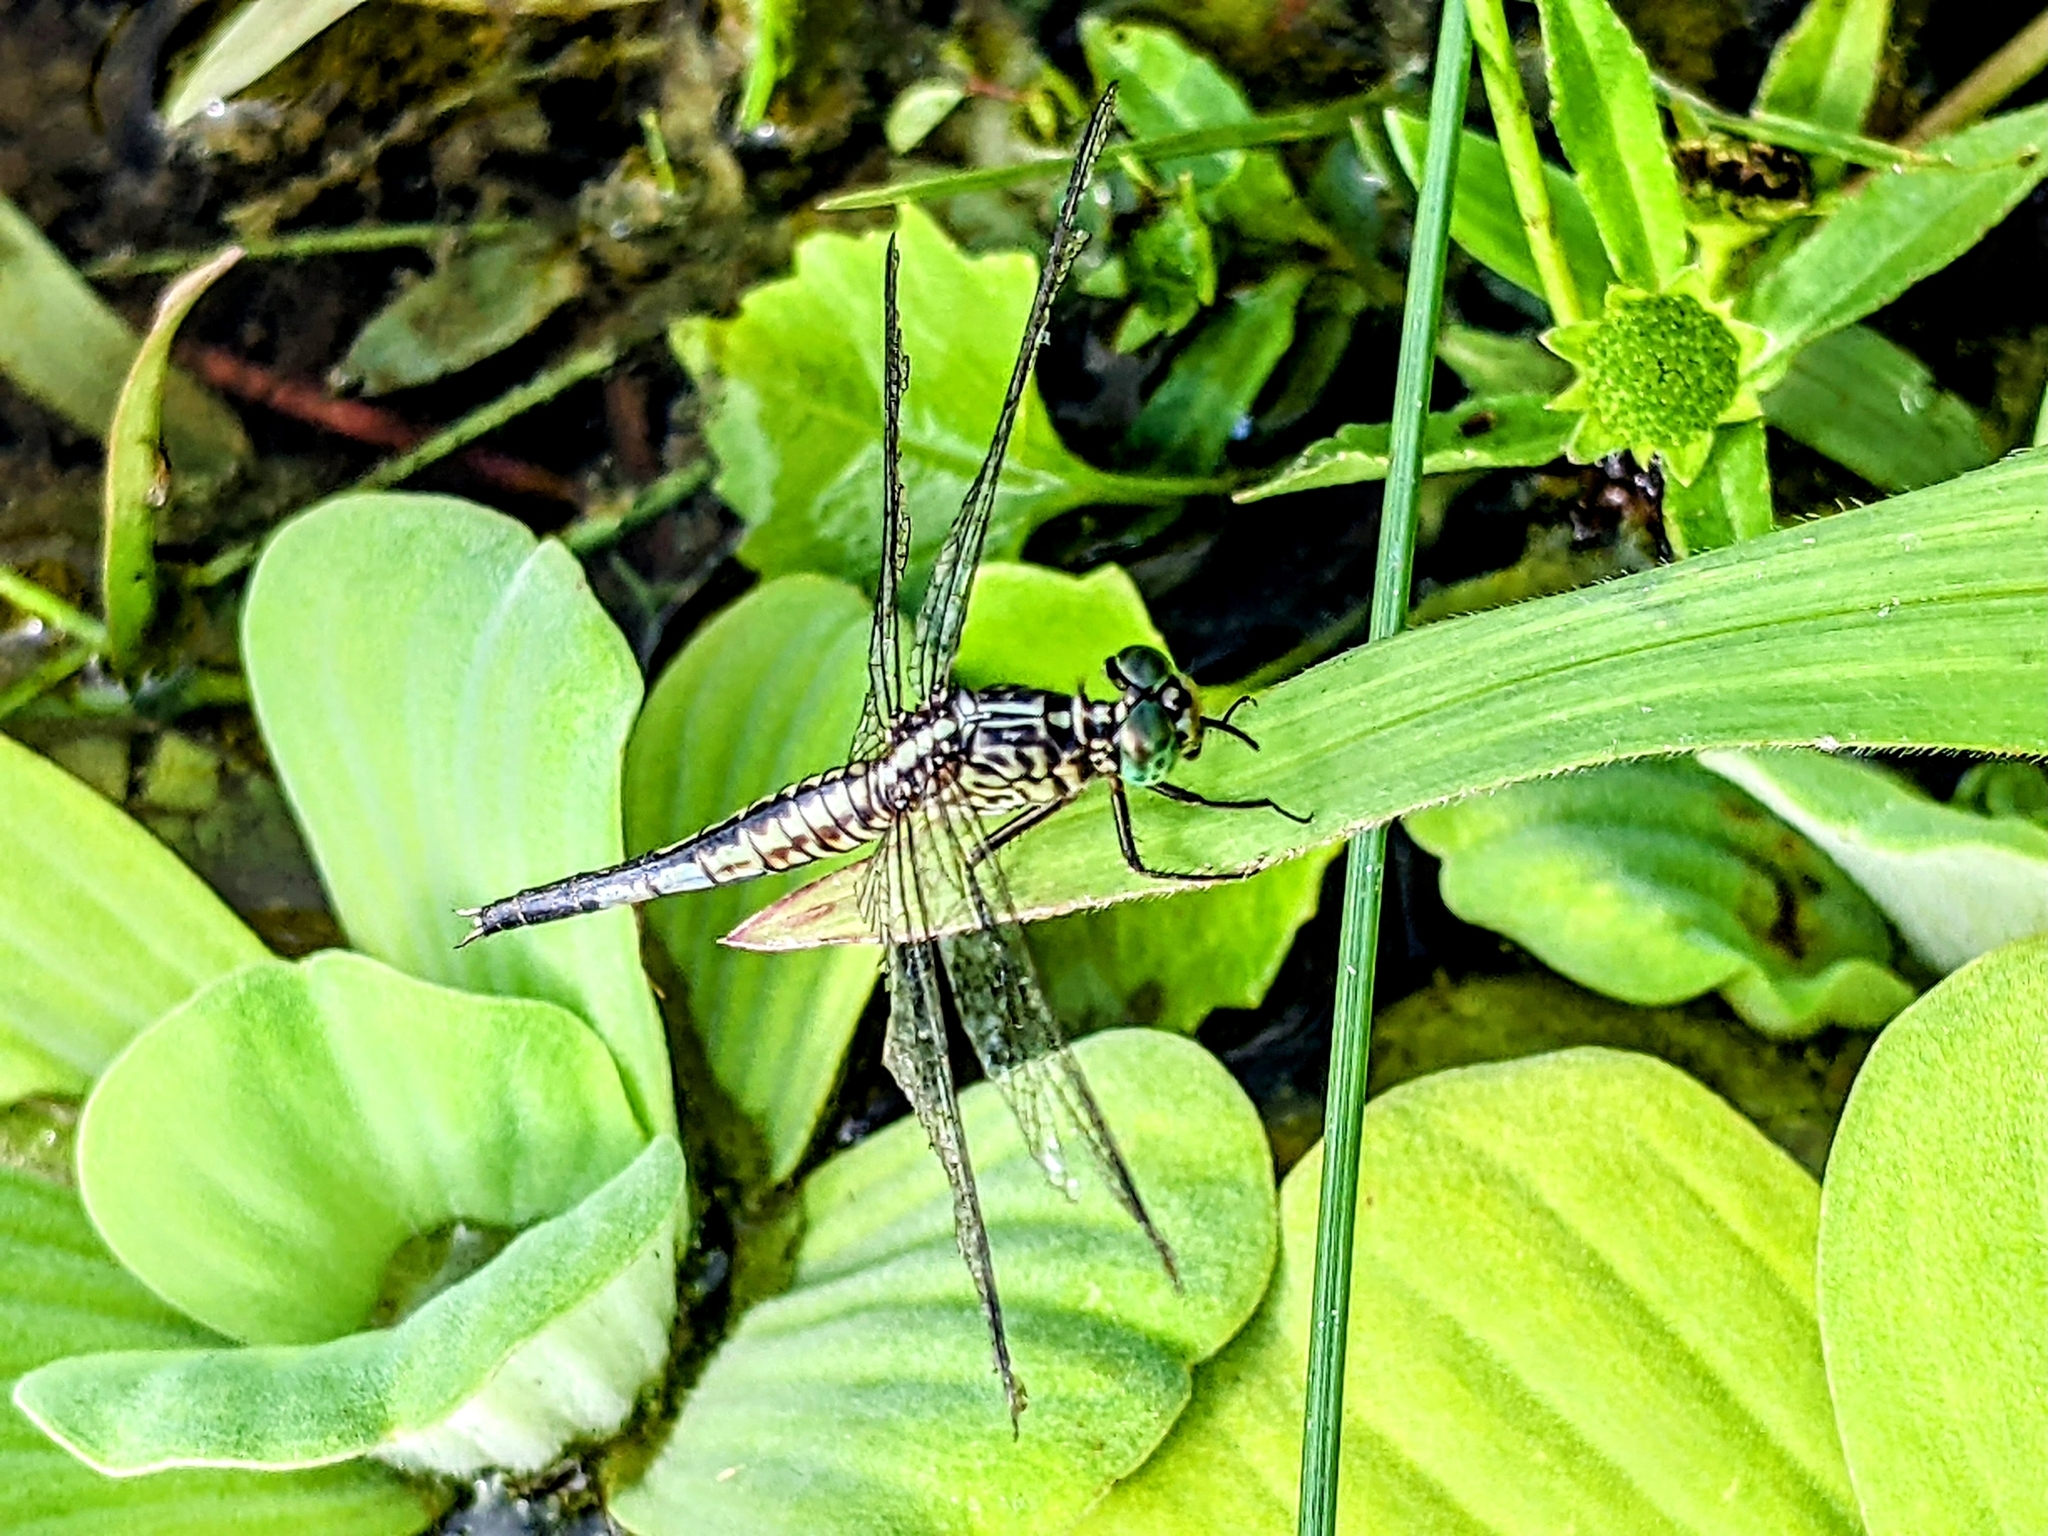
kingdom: Animalia
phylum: Arthropoda
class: Insecta
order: Odonata
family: Libellulidae
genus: Acisoma
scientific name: Acisoma panorpoides
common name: Asian pintail
